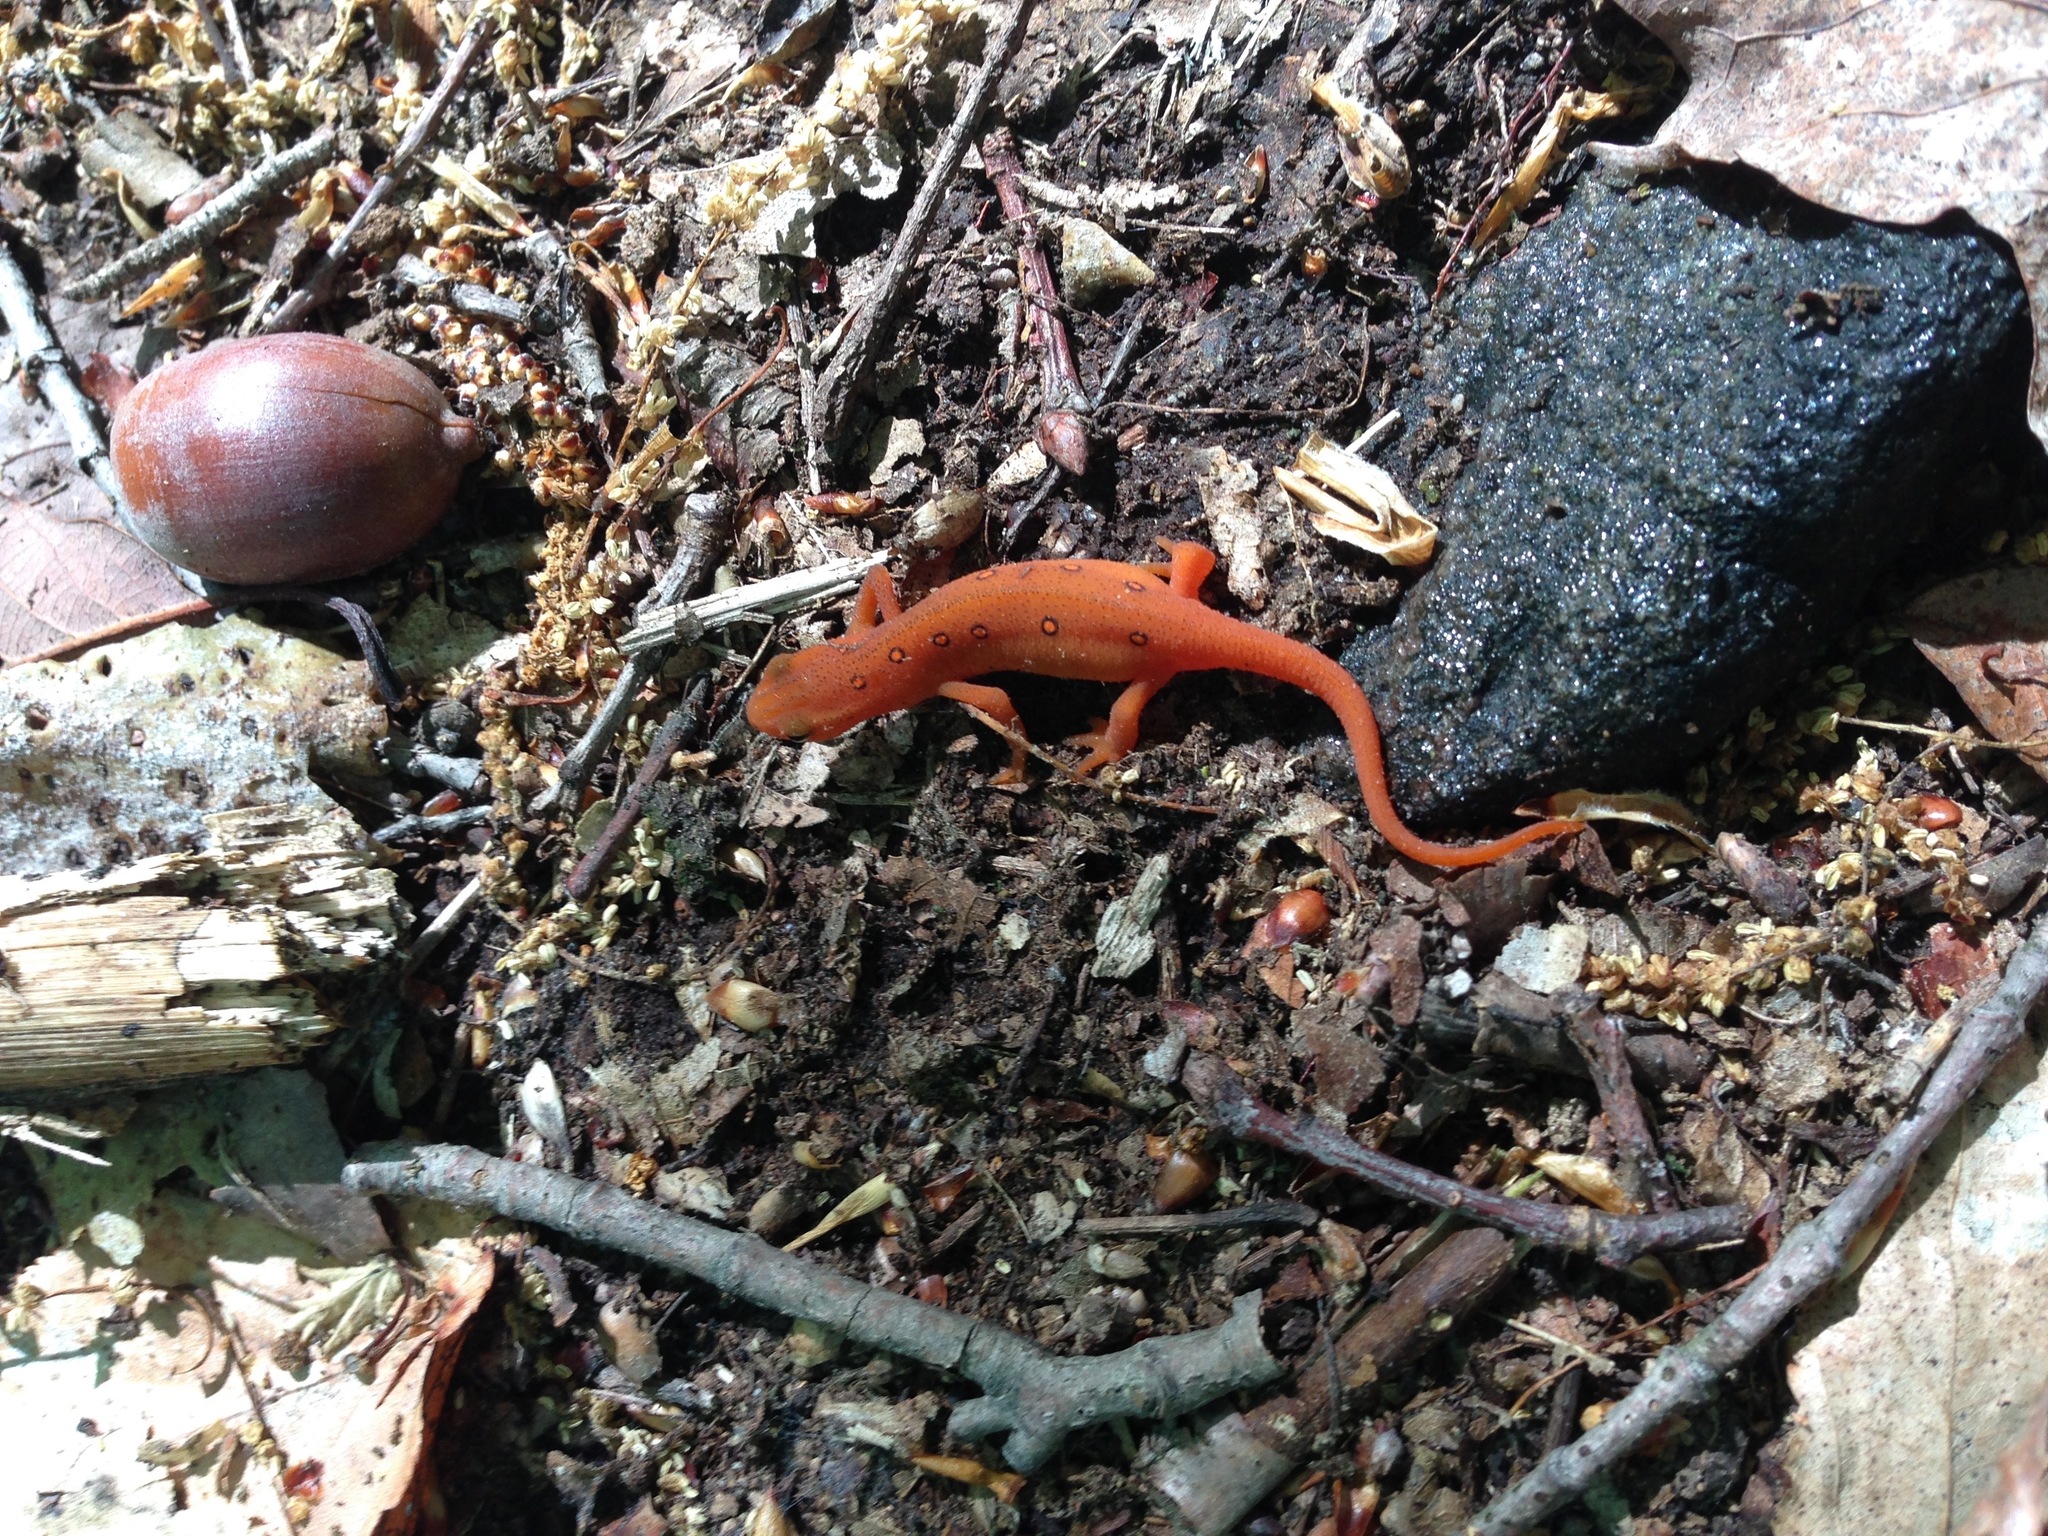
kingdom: Animalia
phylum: Chordata
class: Amphibia
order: Caudata
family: Salamandridae
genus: Notophthalmus
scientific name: Notophthalmus viridescens
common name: Eastern newt
